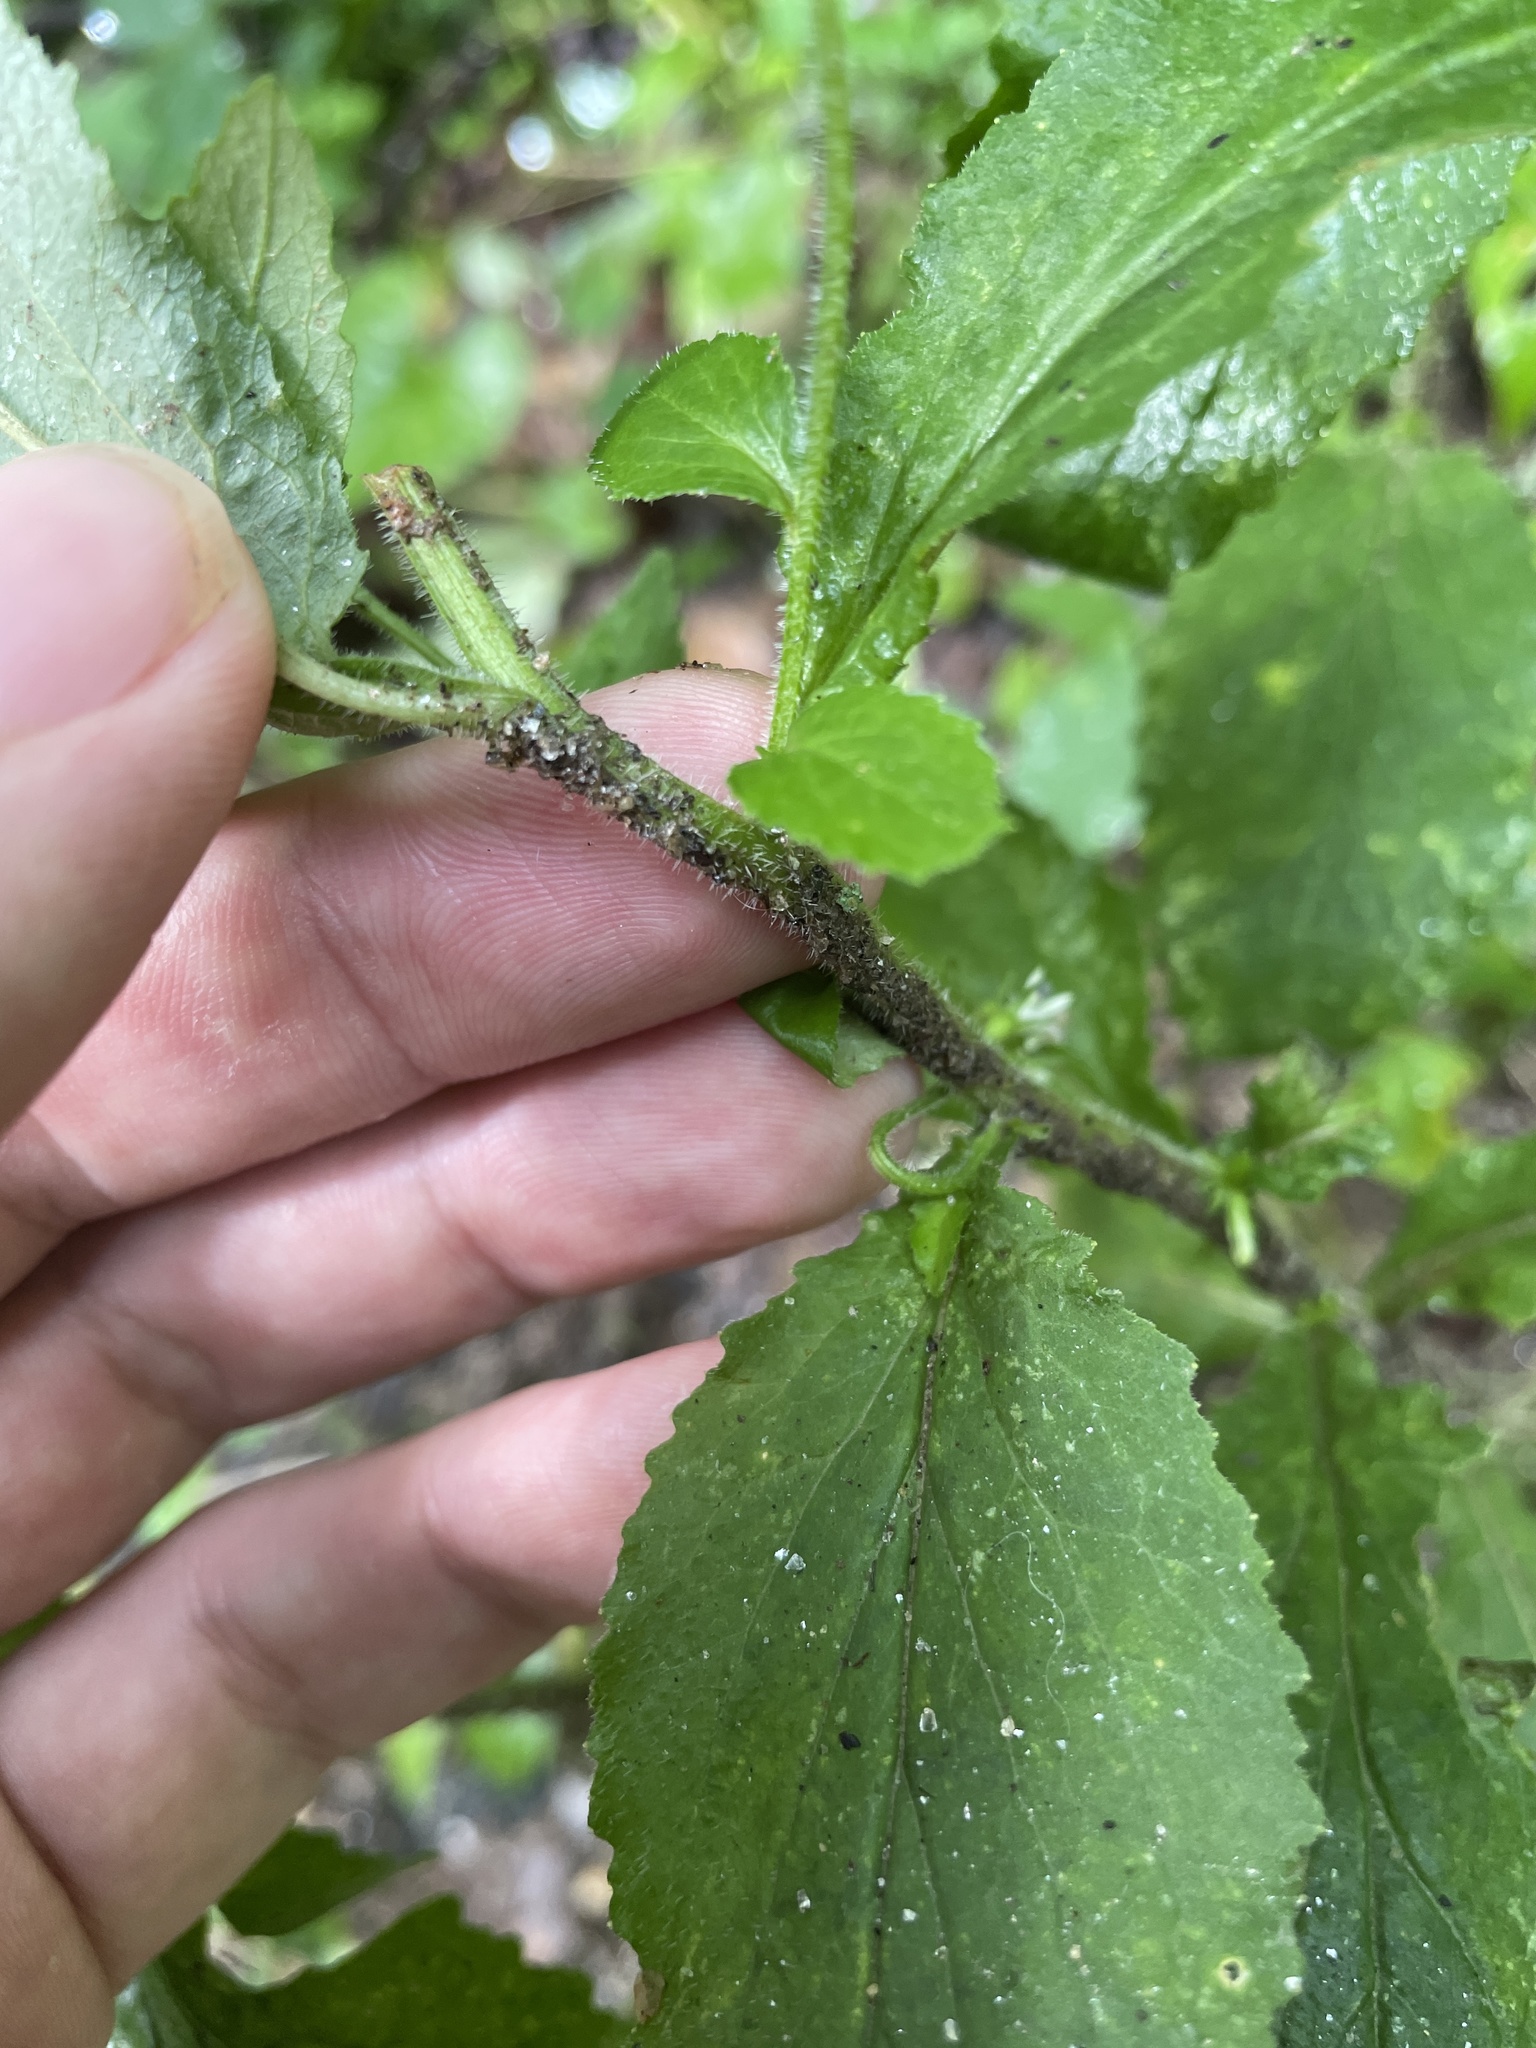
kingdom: Plantae
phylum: Tracheophyta
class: Magnoliopsida
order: Asterales
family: Campanulaceae
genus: Lobelia
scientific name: Lobelia inflata
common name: Indian tobacco
